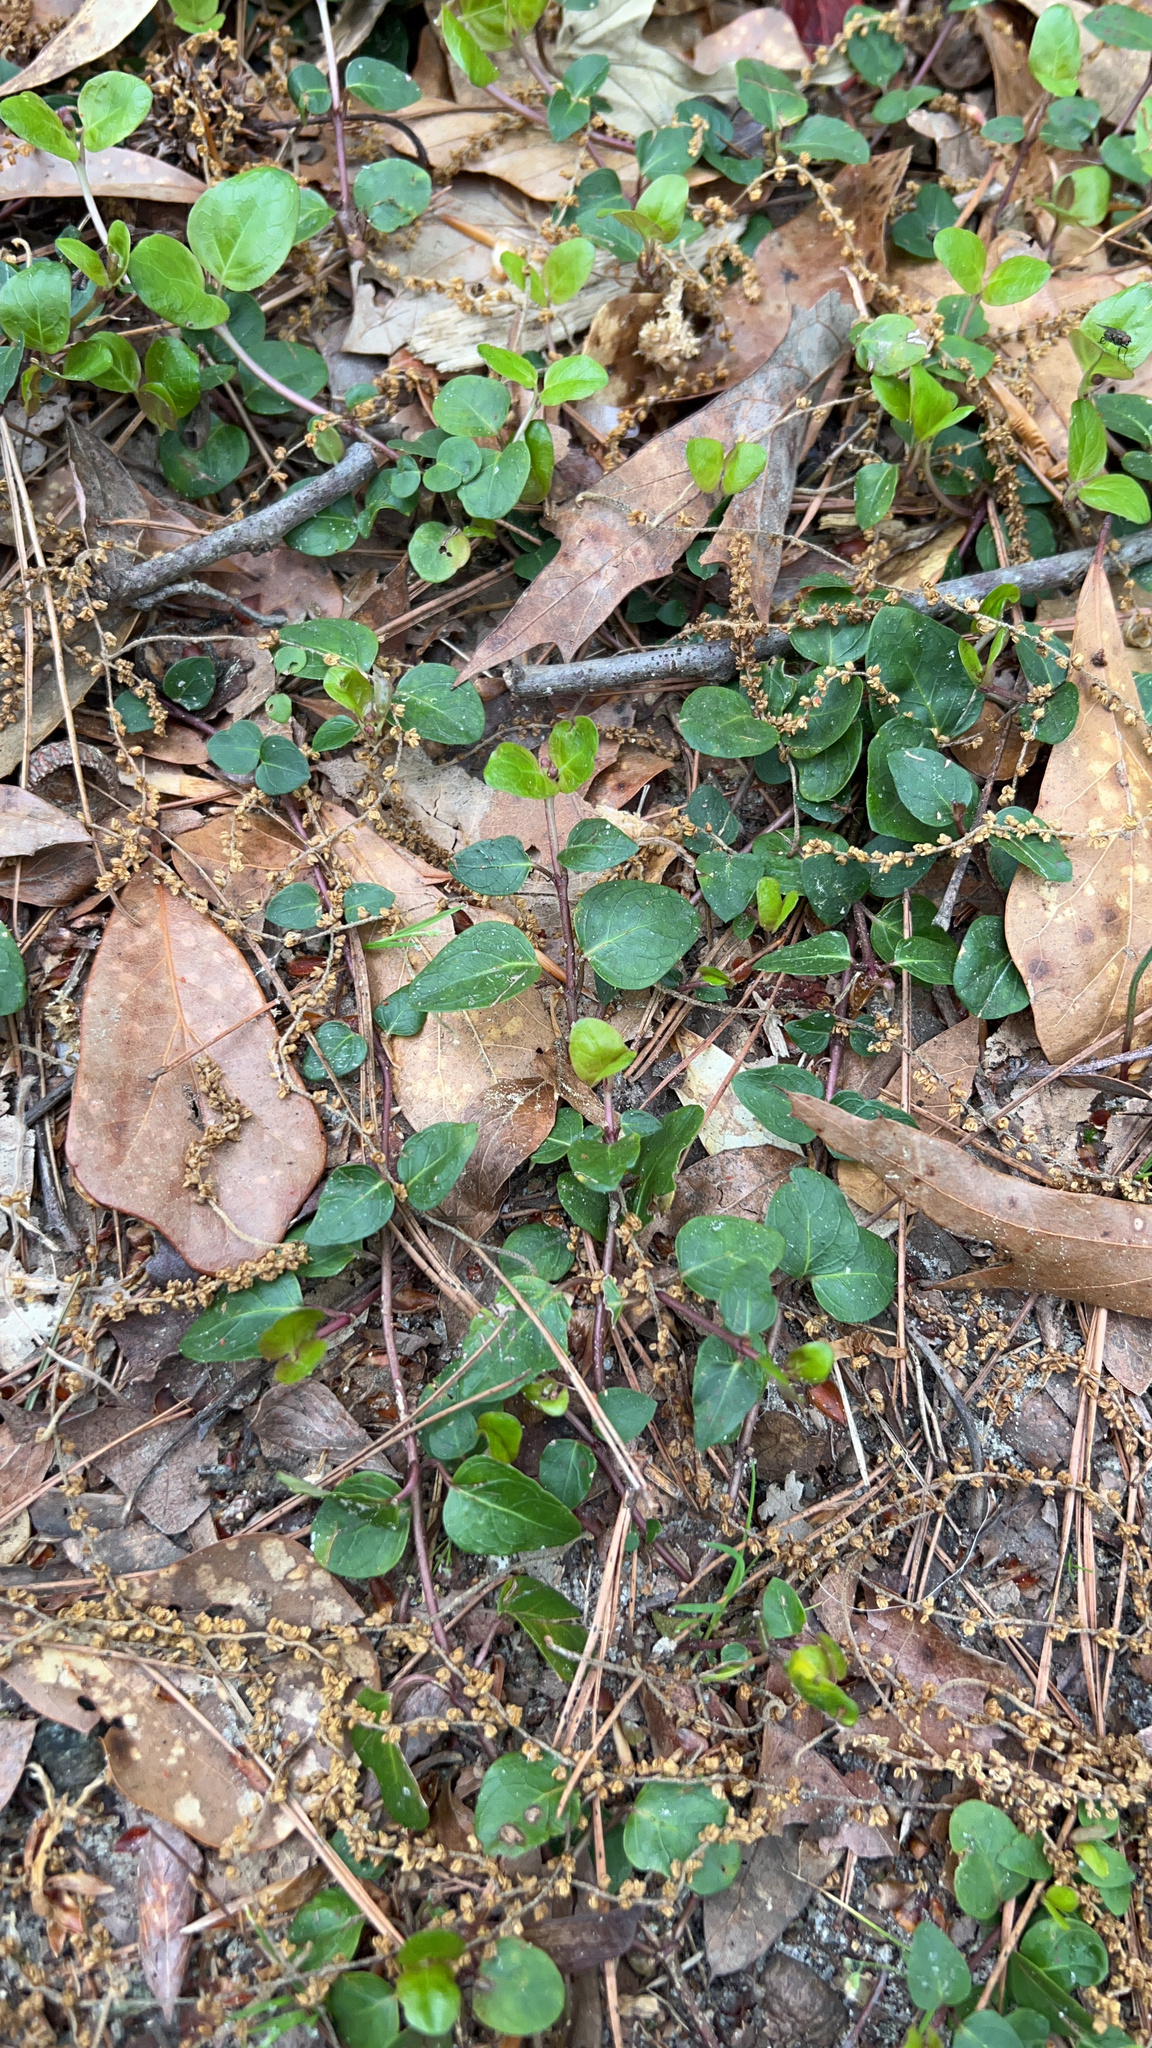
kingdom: Plantae
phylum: Tracheophyta
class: Magnoliopsida
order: Gentianales
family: Rubiaceae
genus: Mitchella
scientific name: Mitchella repens
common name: Partridge-berry
